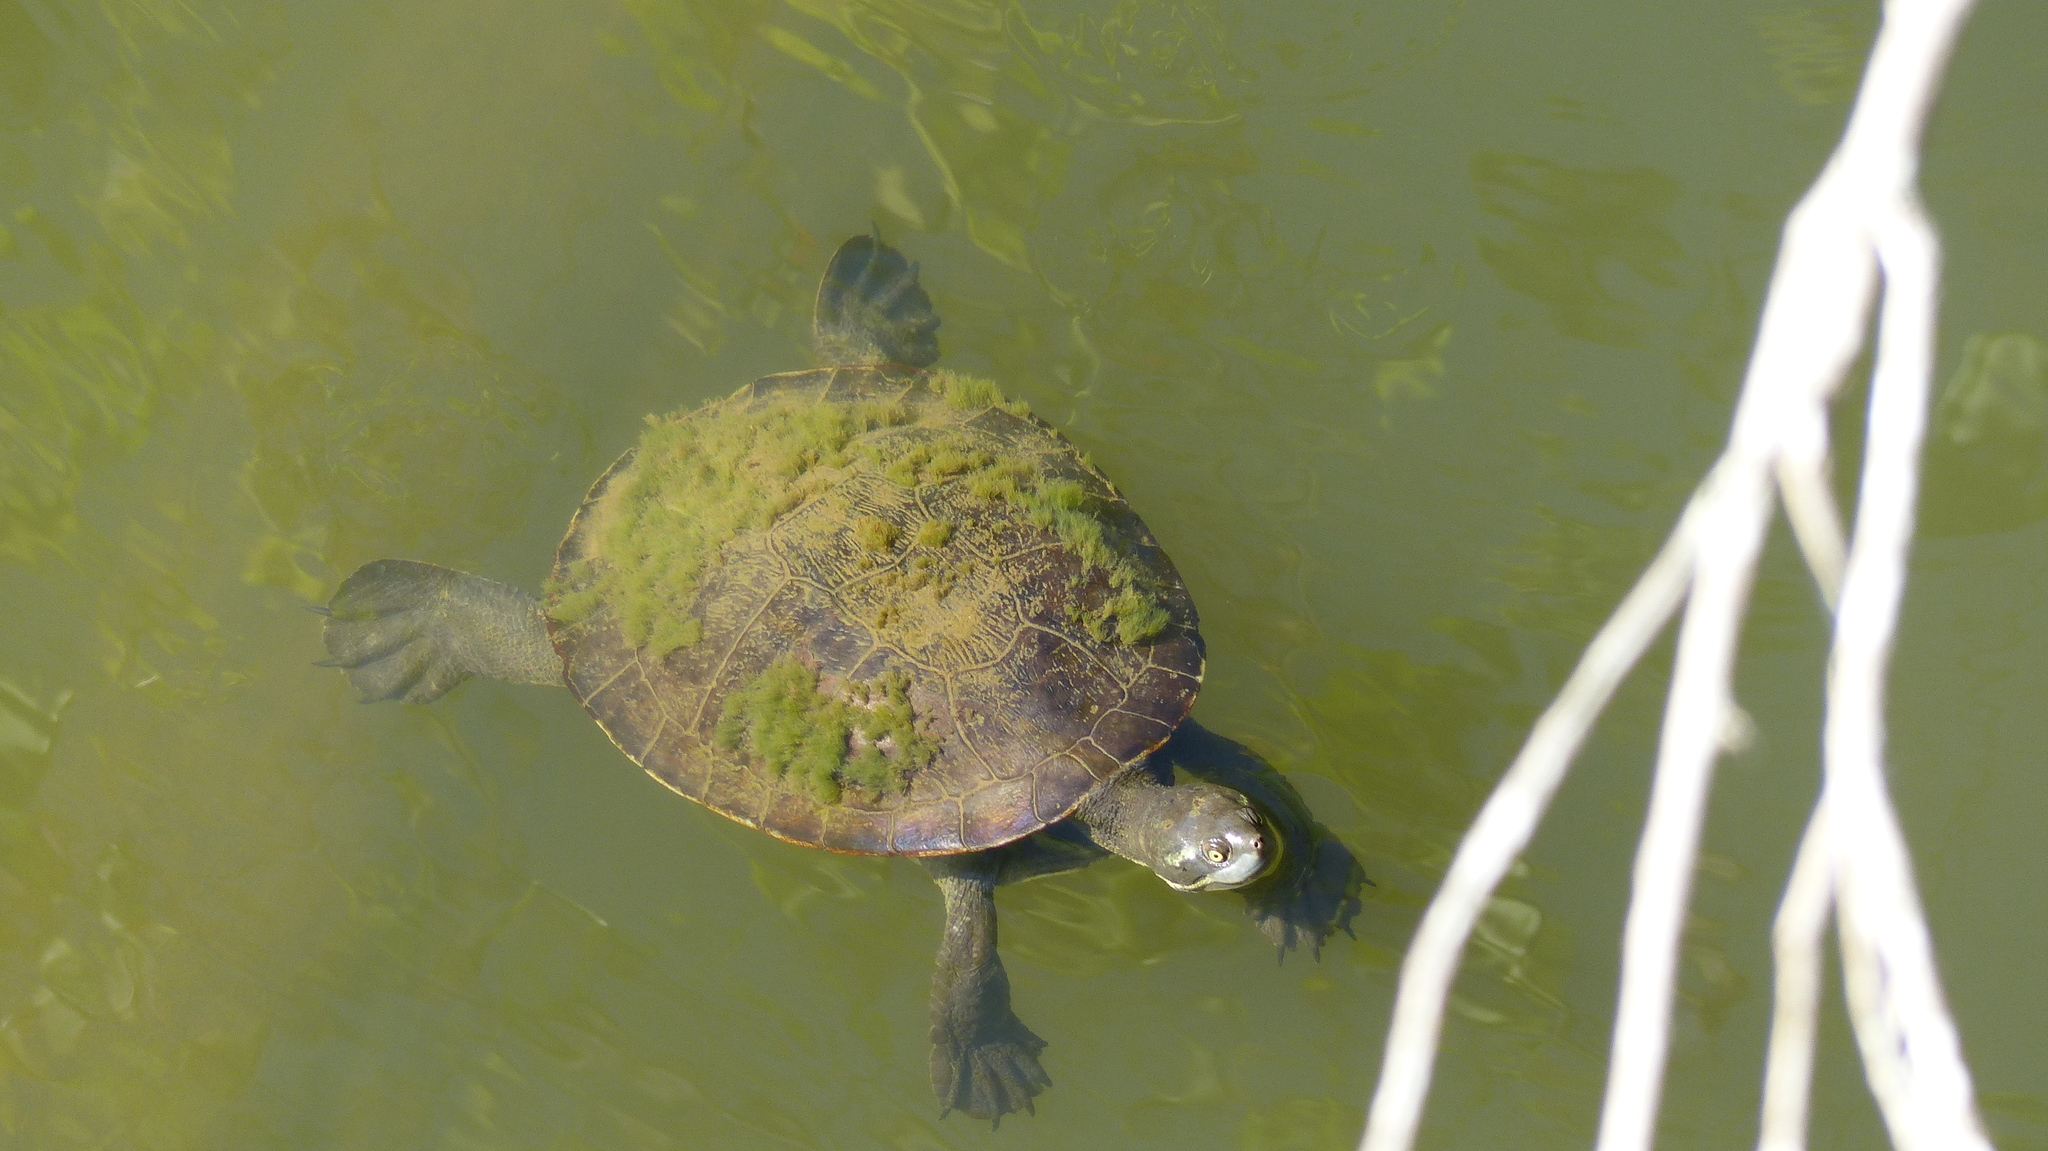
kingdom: Animalia
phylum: Chordata
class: Testudines
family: Chelidae
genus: Emydura
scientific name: Emydura macquarii
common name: Murray river turtle
